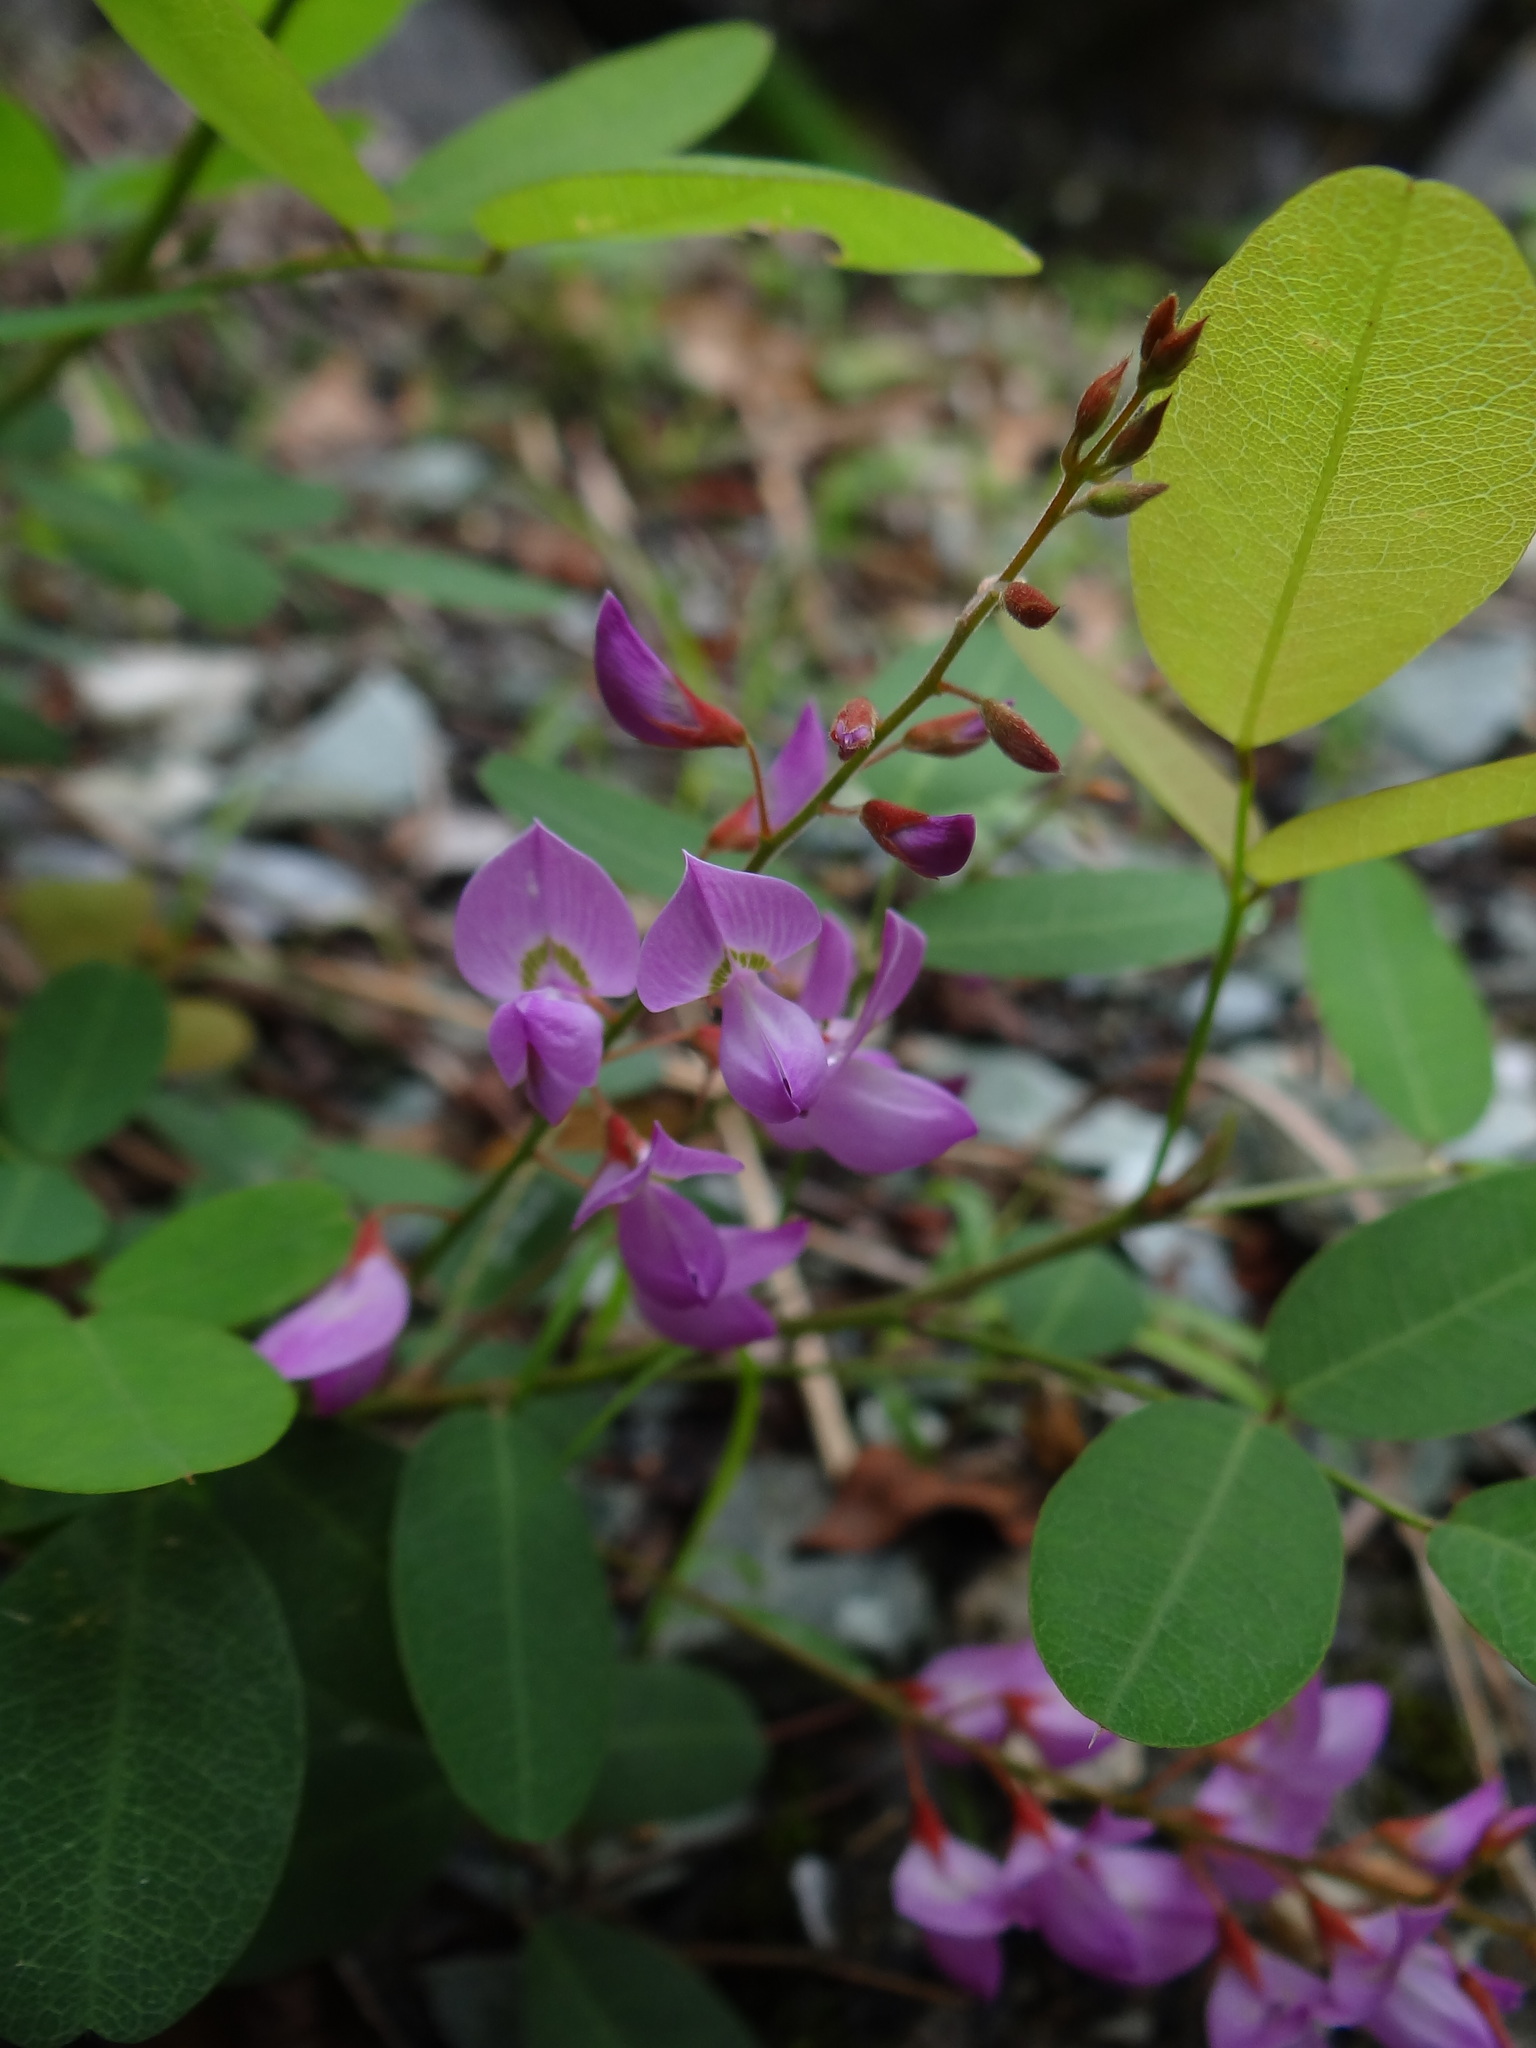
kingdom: Plantae
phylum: Tracheophyta
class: Magnoliopsida
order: Fabales
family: Fabaceae
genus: Campylotropis
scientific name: Campylotropis macrocarpa
